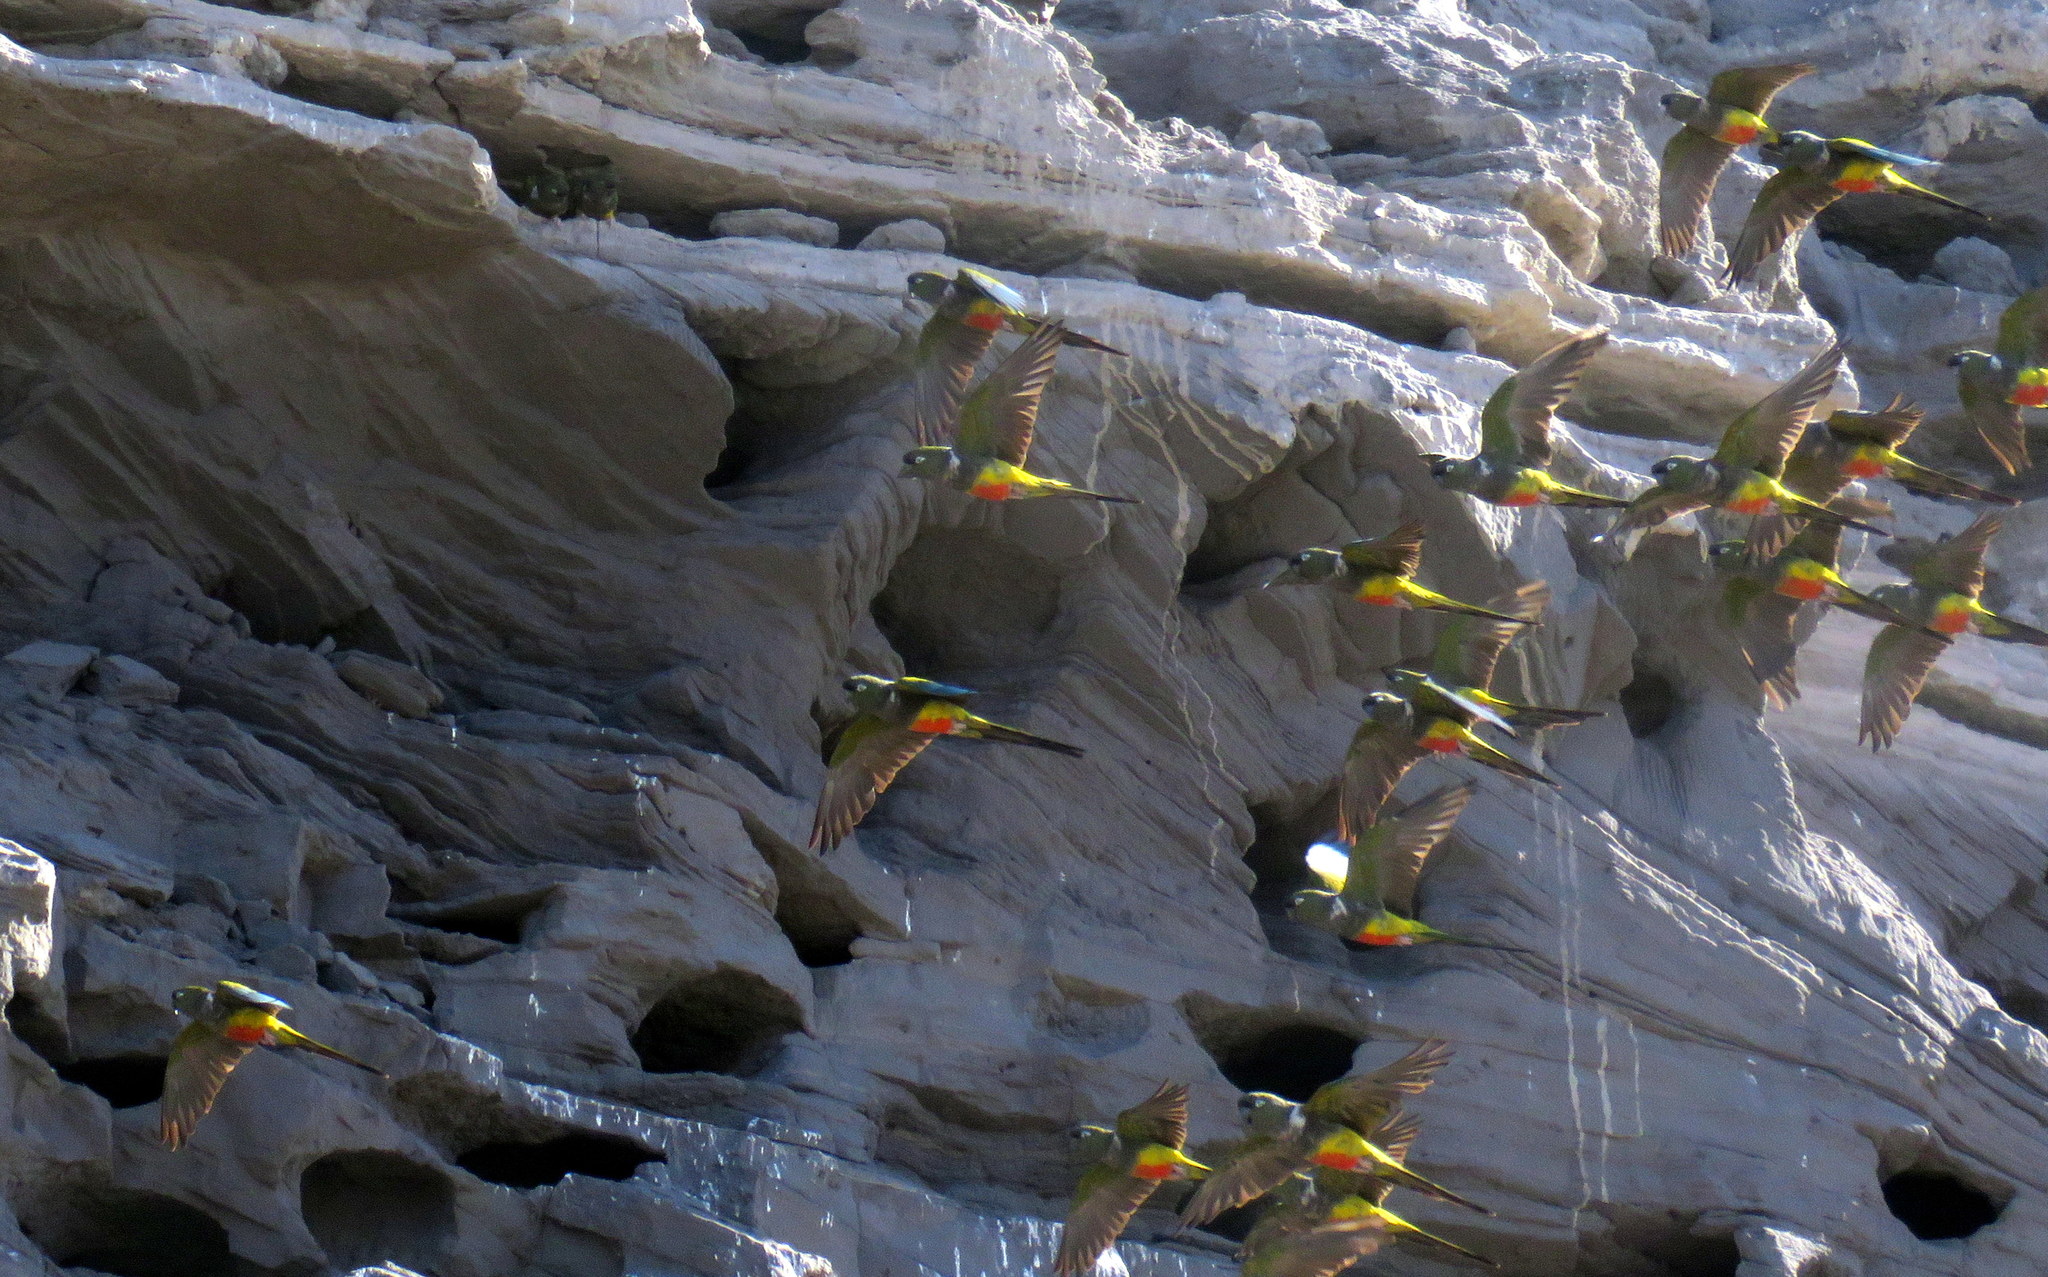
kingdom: Animalia
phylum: Chordata
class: Aves
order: Psittaciformes
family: Psittacidae
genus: Cyanoliseus
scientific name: Cyanoliseus patagonus
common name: Burrowing parrot
